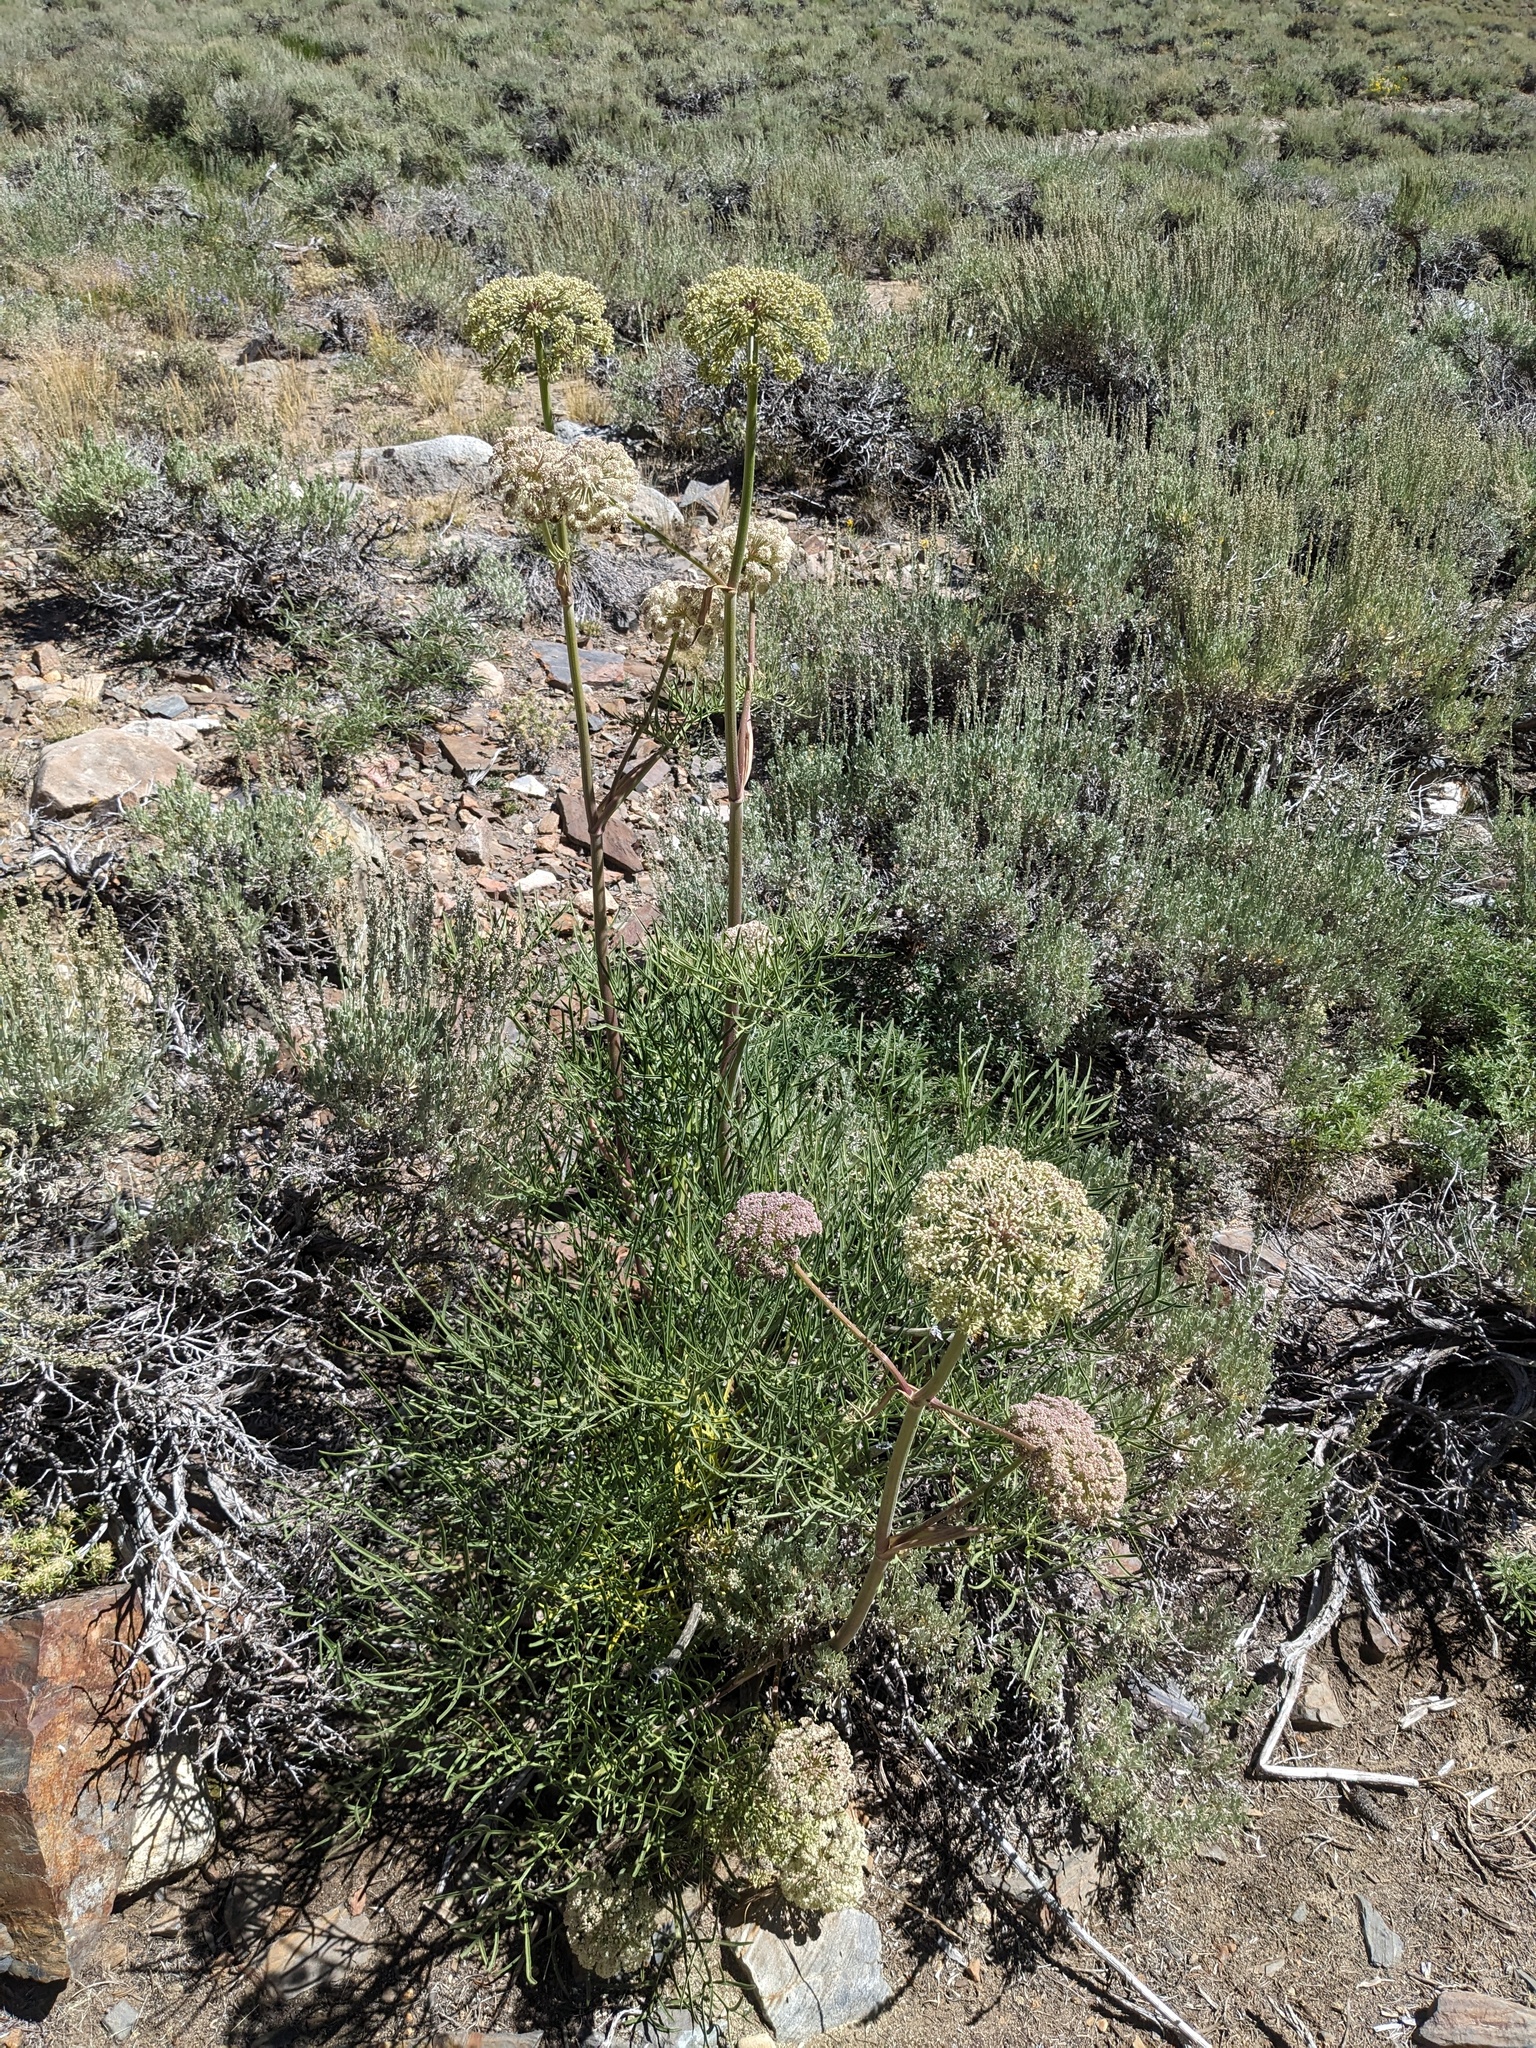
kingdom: Plantae
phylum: Tracheophyta
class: Magnoliopsida
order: Apiales
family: Apiaceae
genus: Angelica
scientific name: Angelica lineariloba
